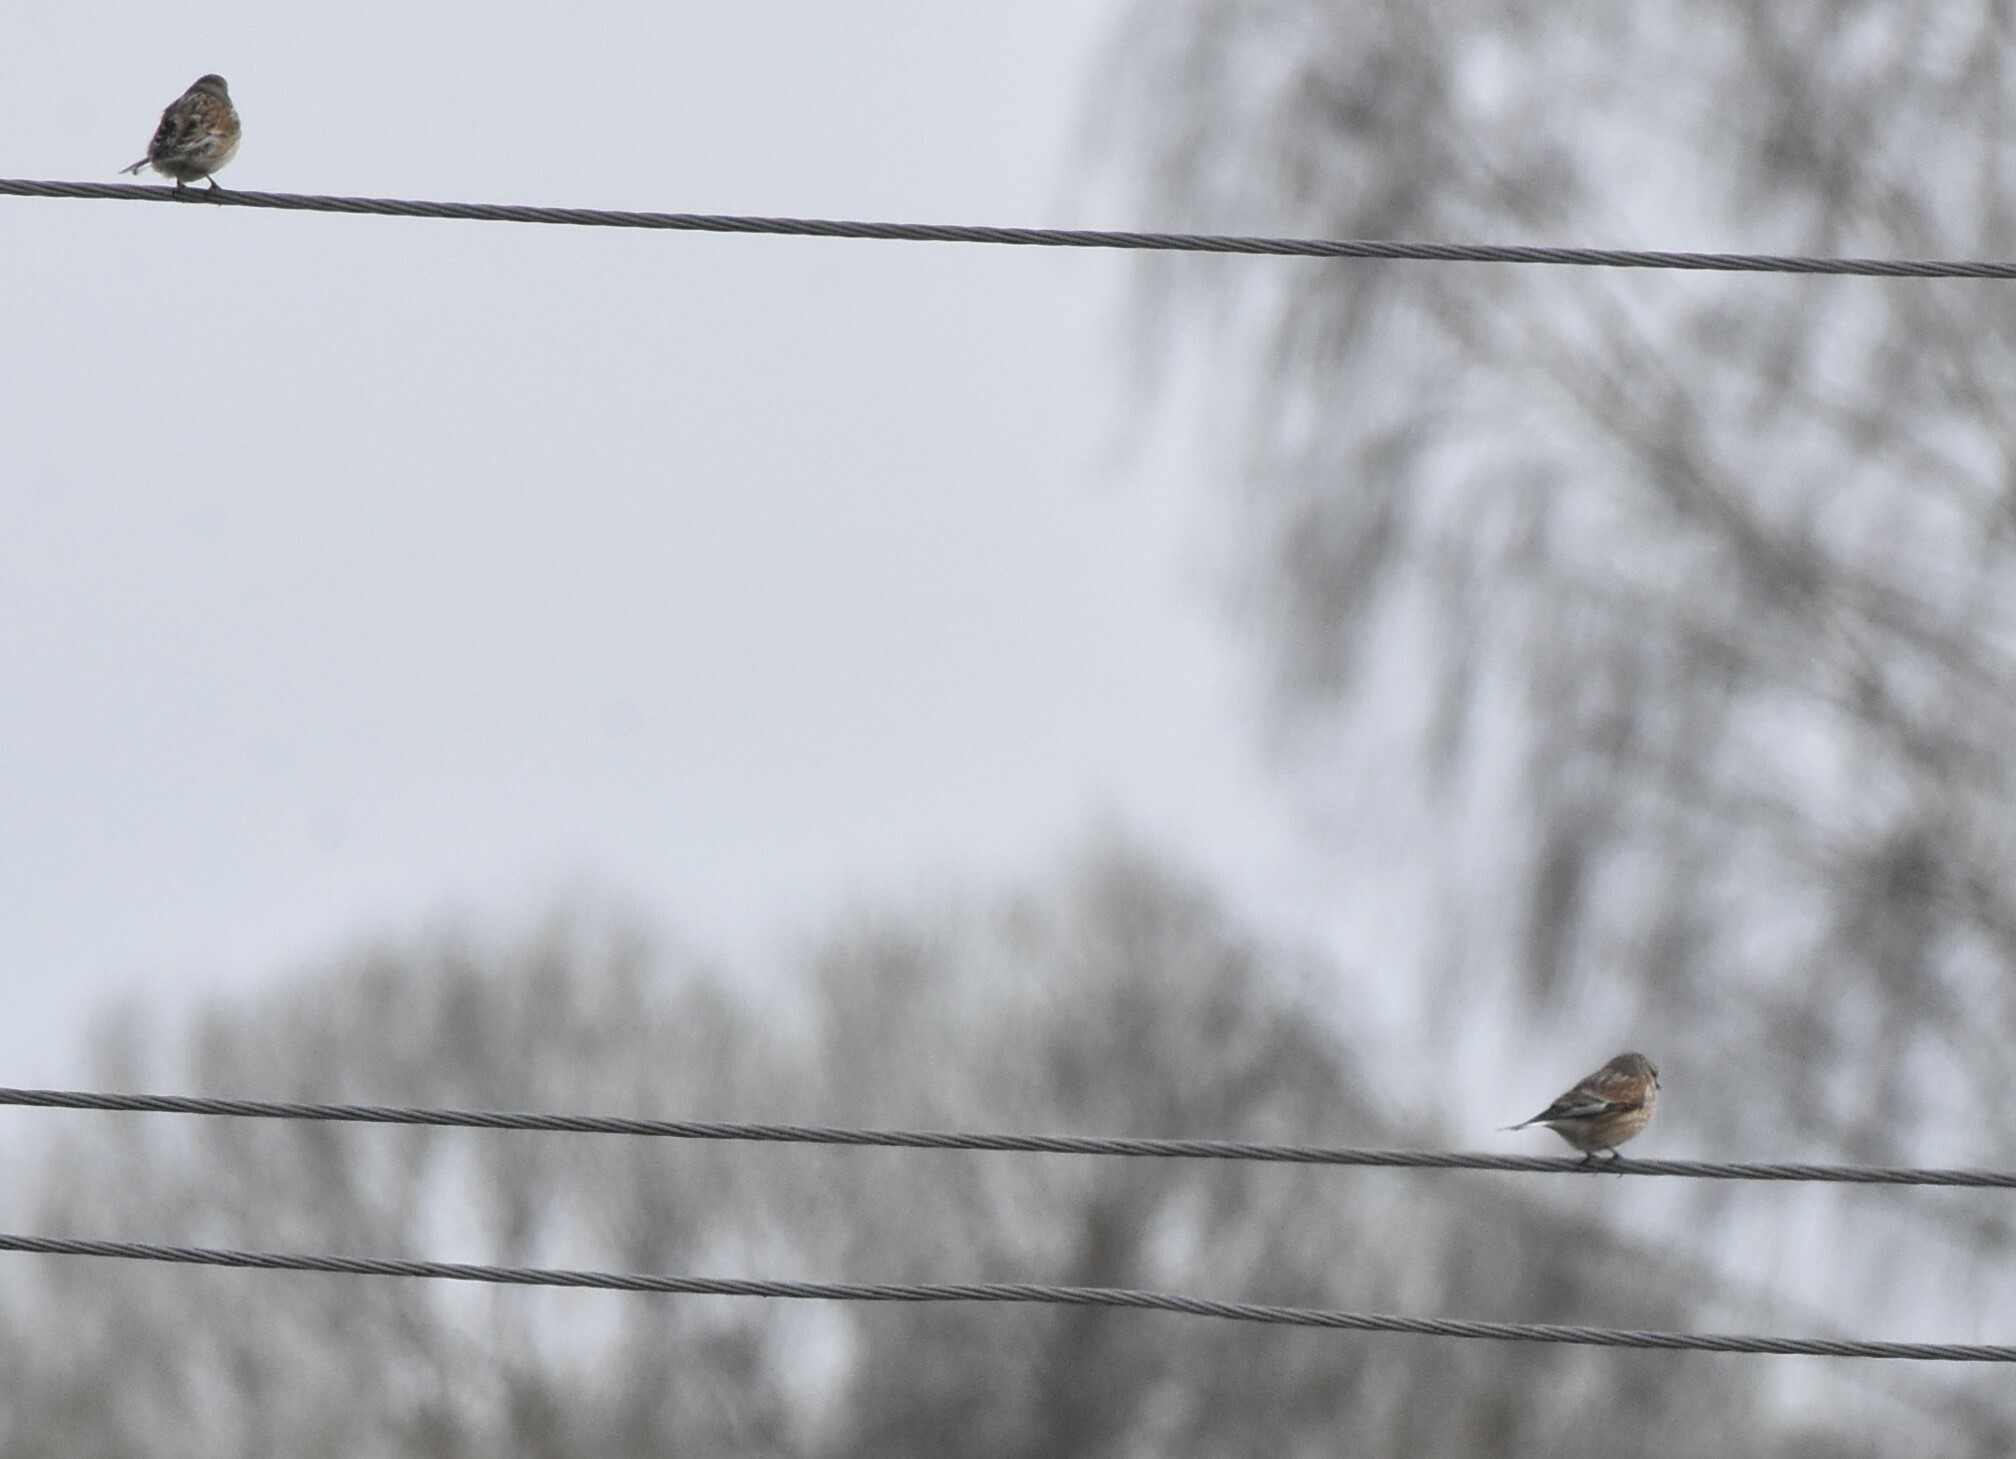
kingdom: Animalia
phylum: Chordata
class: Aves
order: Passeriformes
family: Fringillidae
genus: Linaria
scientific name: Linaria cannabina
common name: Common linnet
